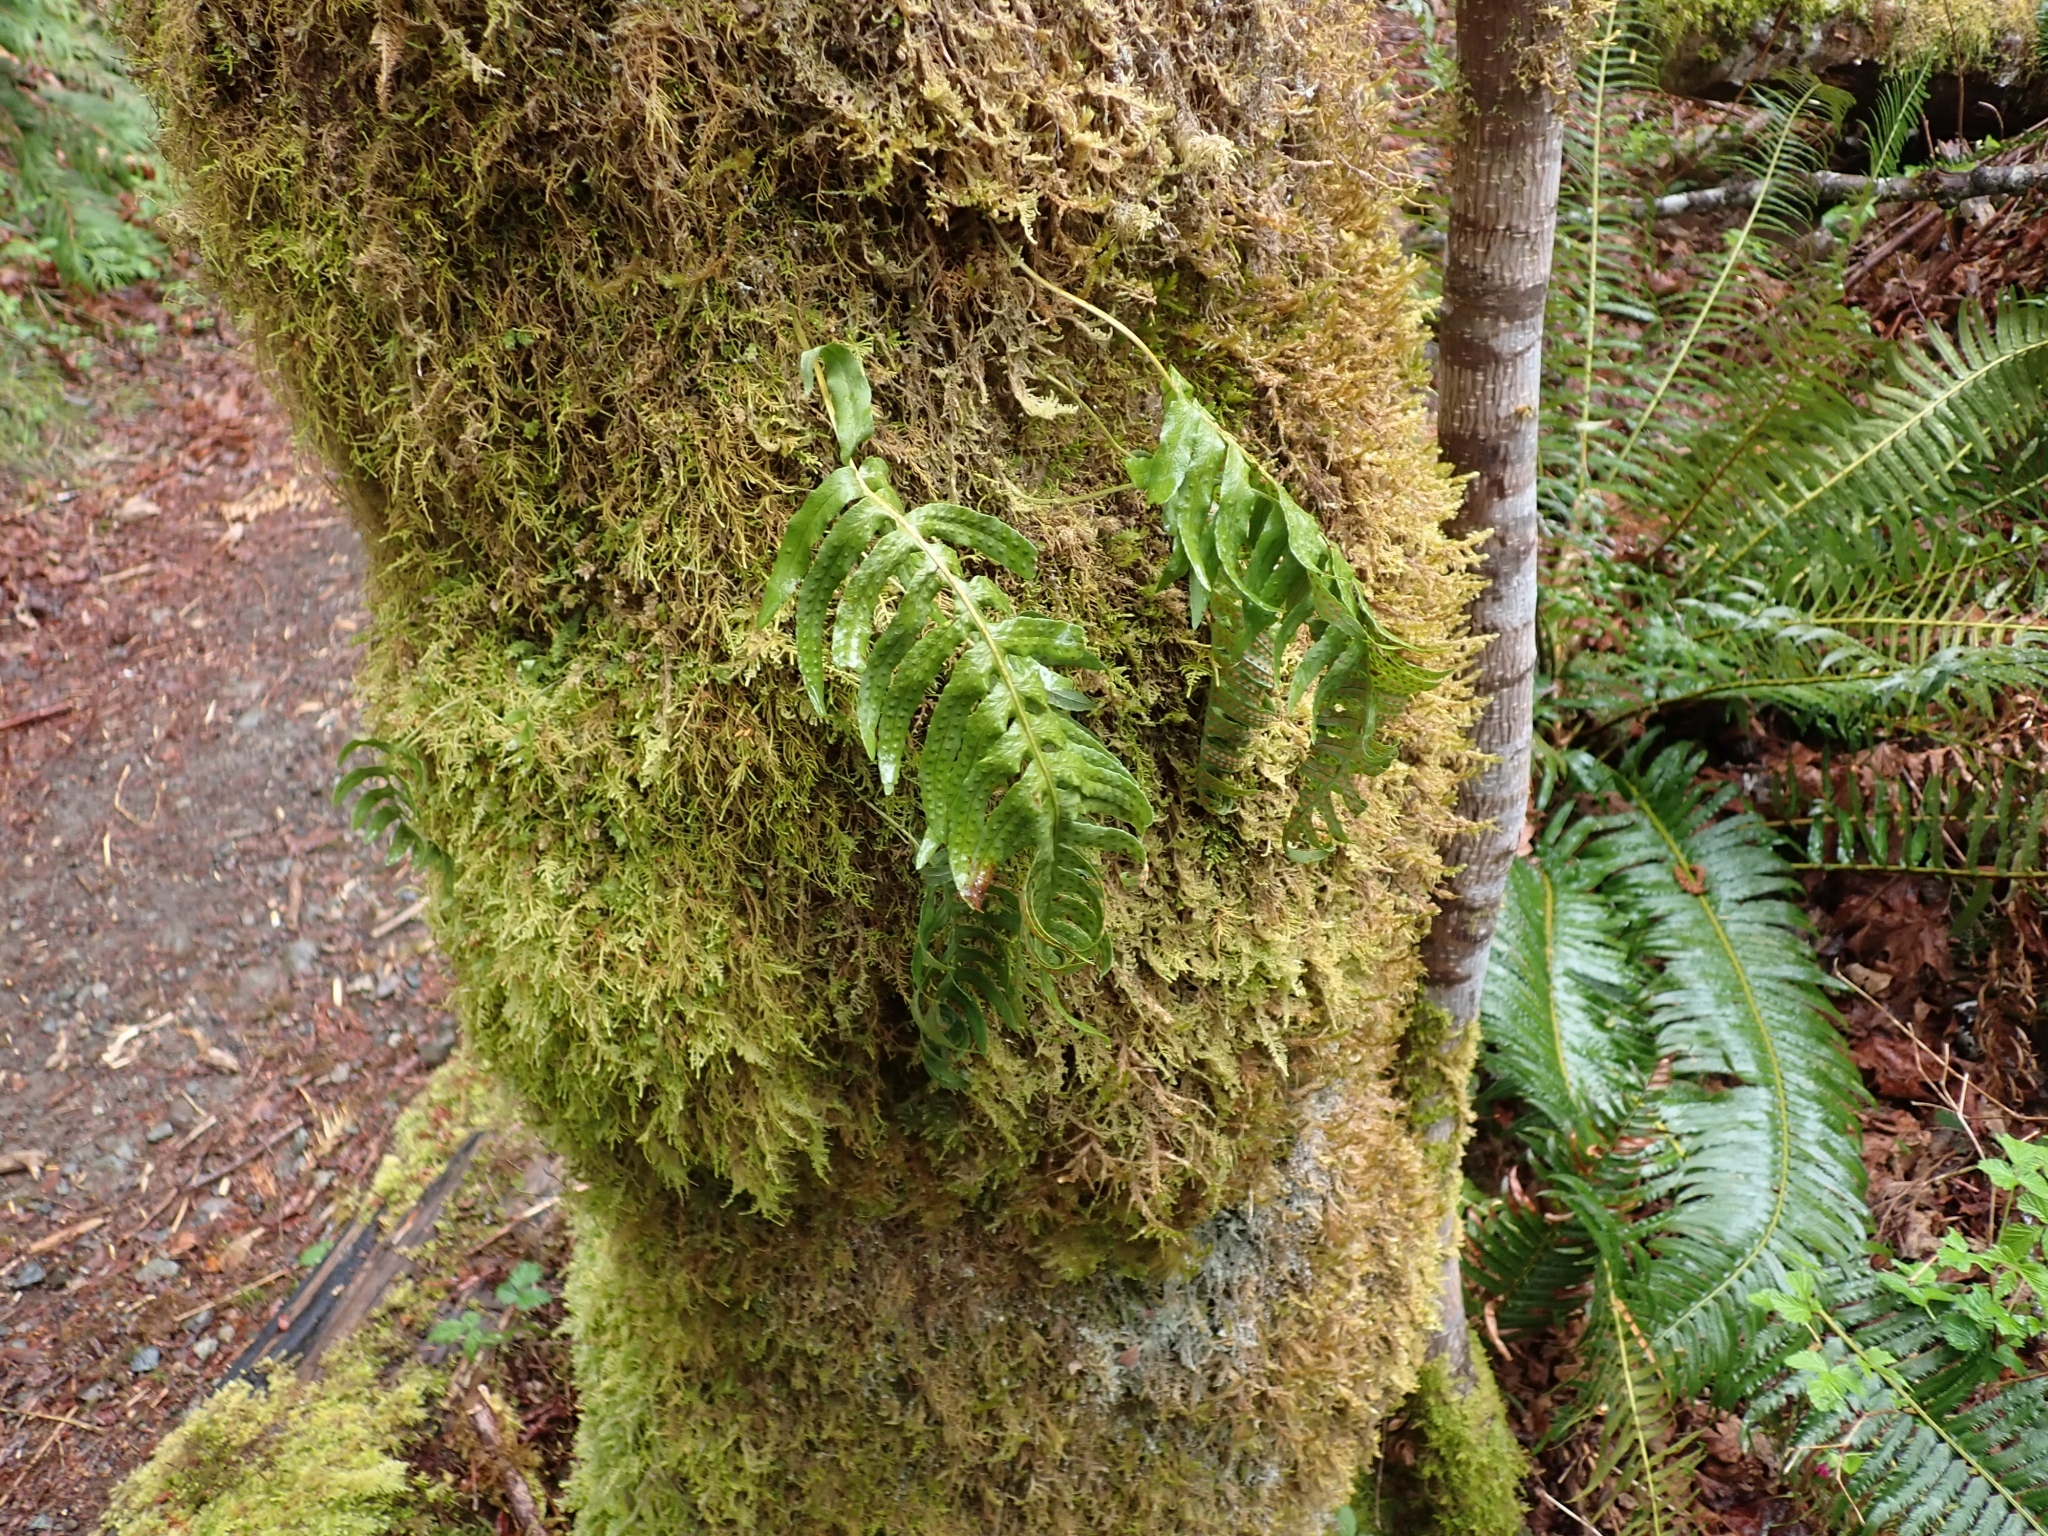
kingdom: Plantae
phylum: Tracheophyta
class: Polypodiopsida
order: Polypodiales
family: Polypodiaceae
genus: Polypodium
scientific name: Polypodium glycyrrhiza
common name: Licorice fern
